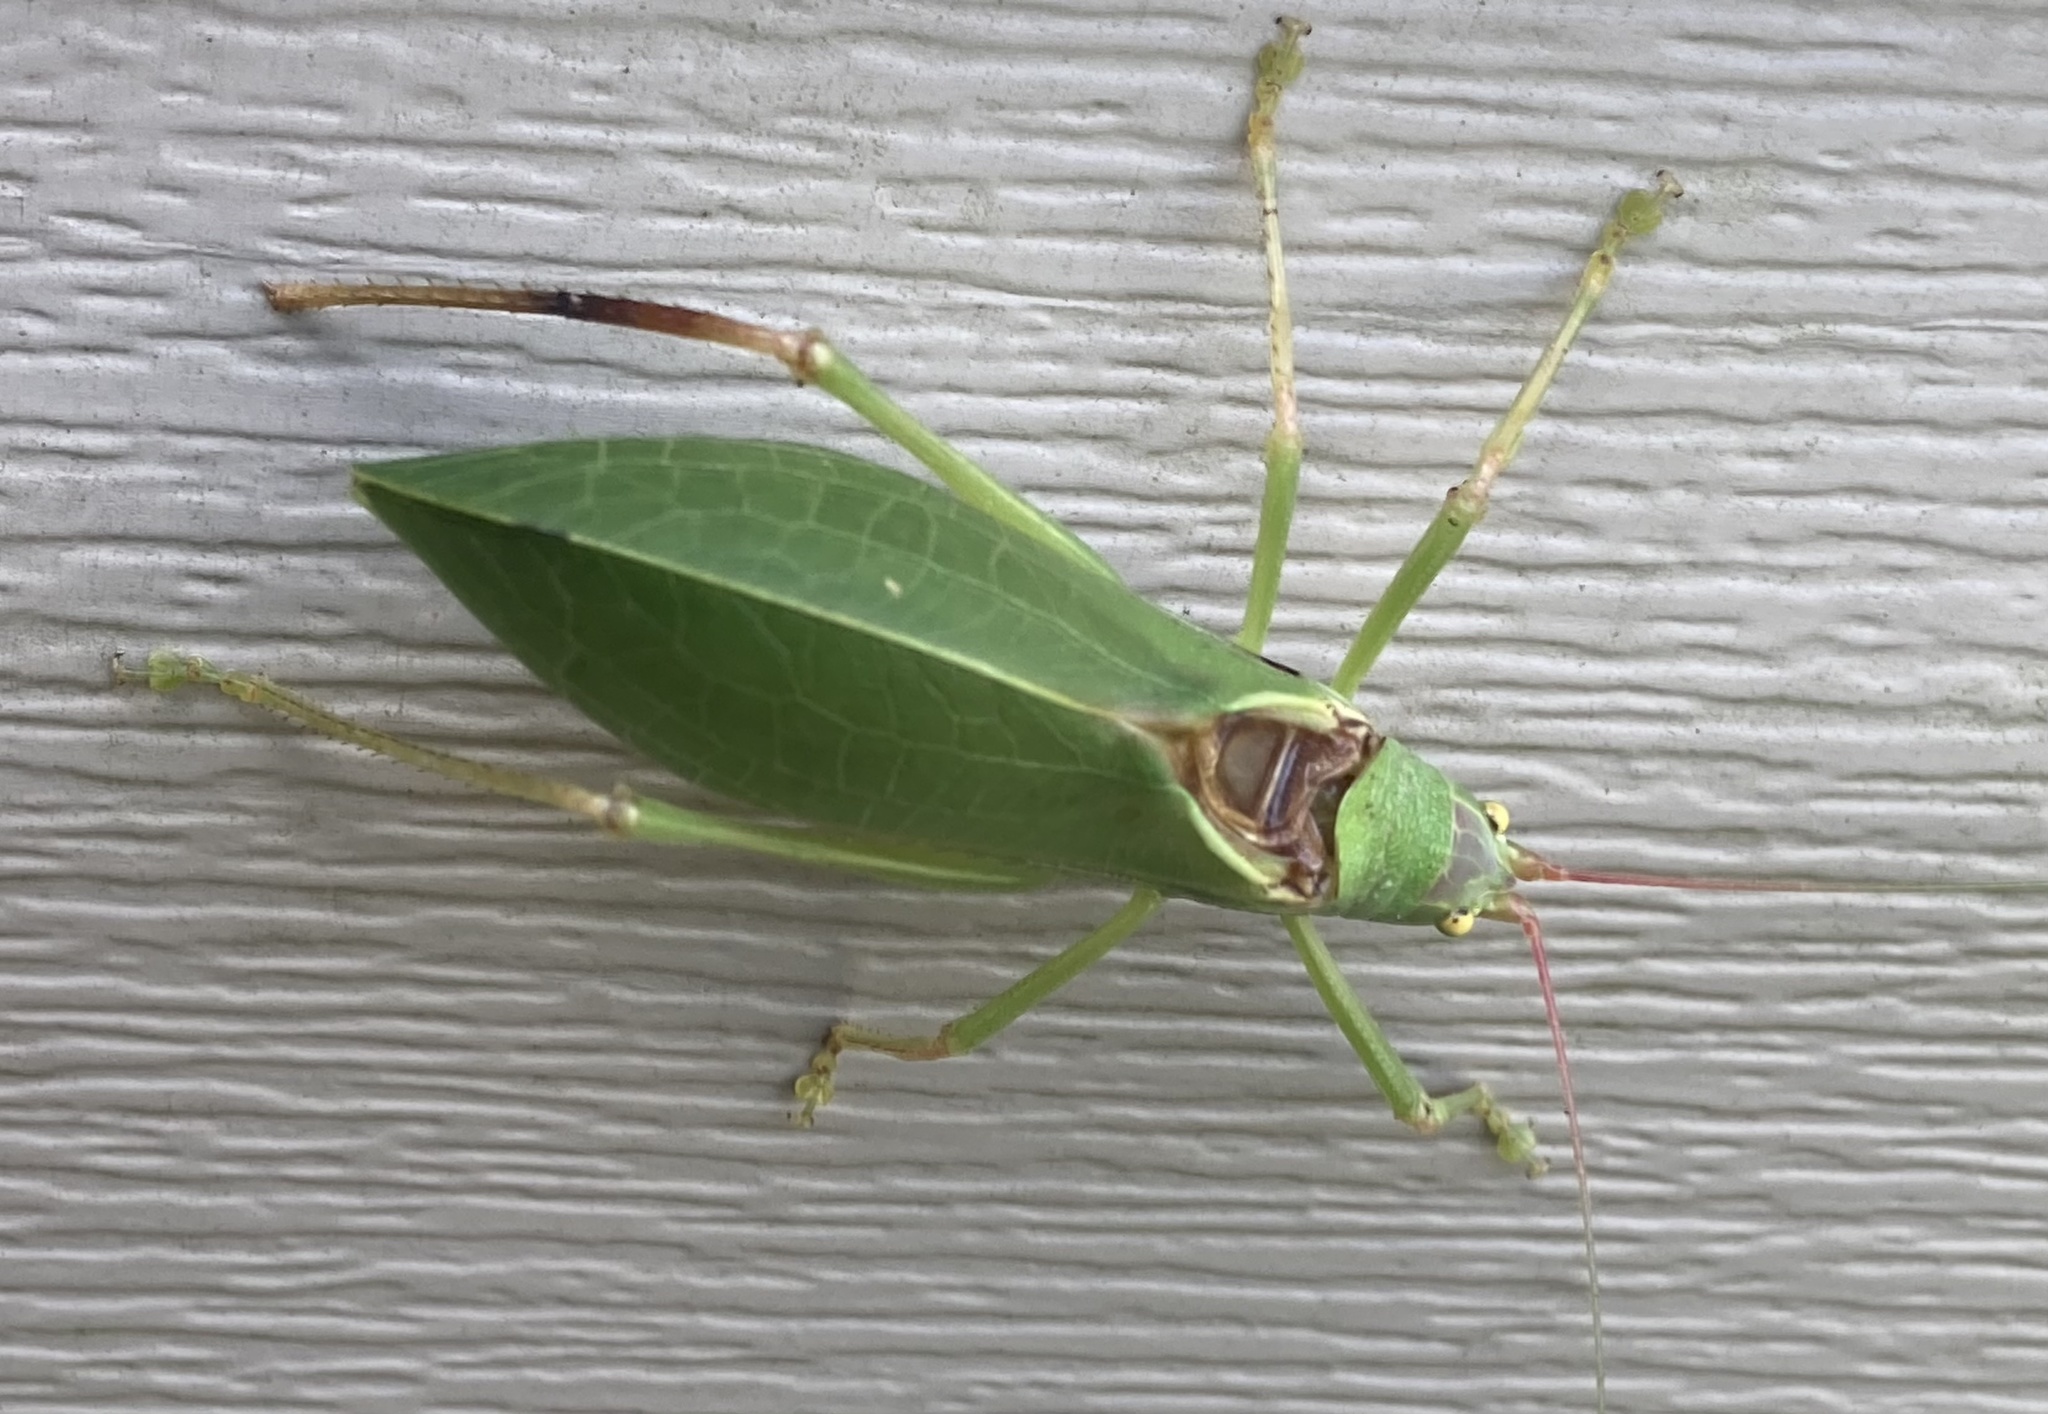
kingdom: Animalia
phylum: Arthropoda
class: Insecta
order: Orthoptera
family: Tettigoniidae
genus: Pterophylla
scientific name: Pterophylla camellifolia
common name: Common true katydid
